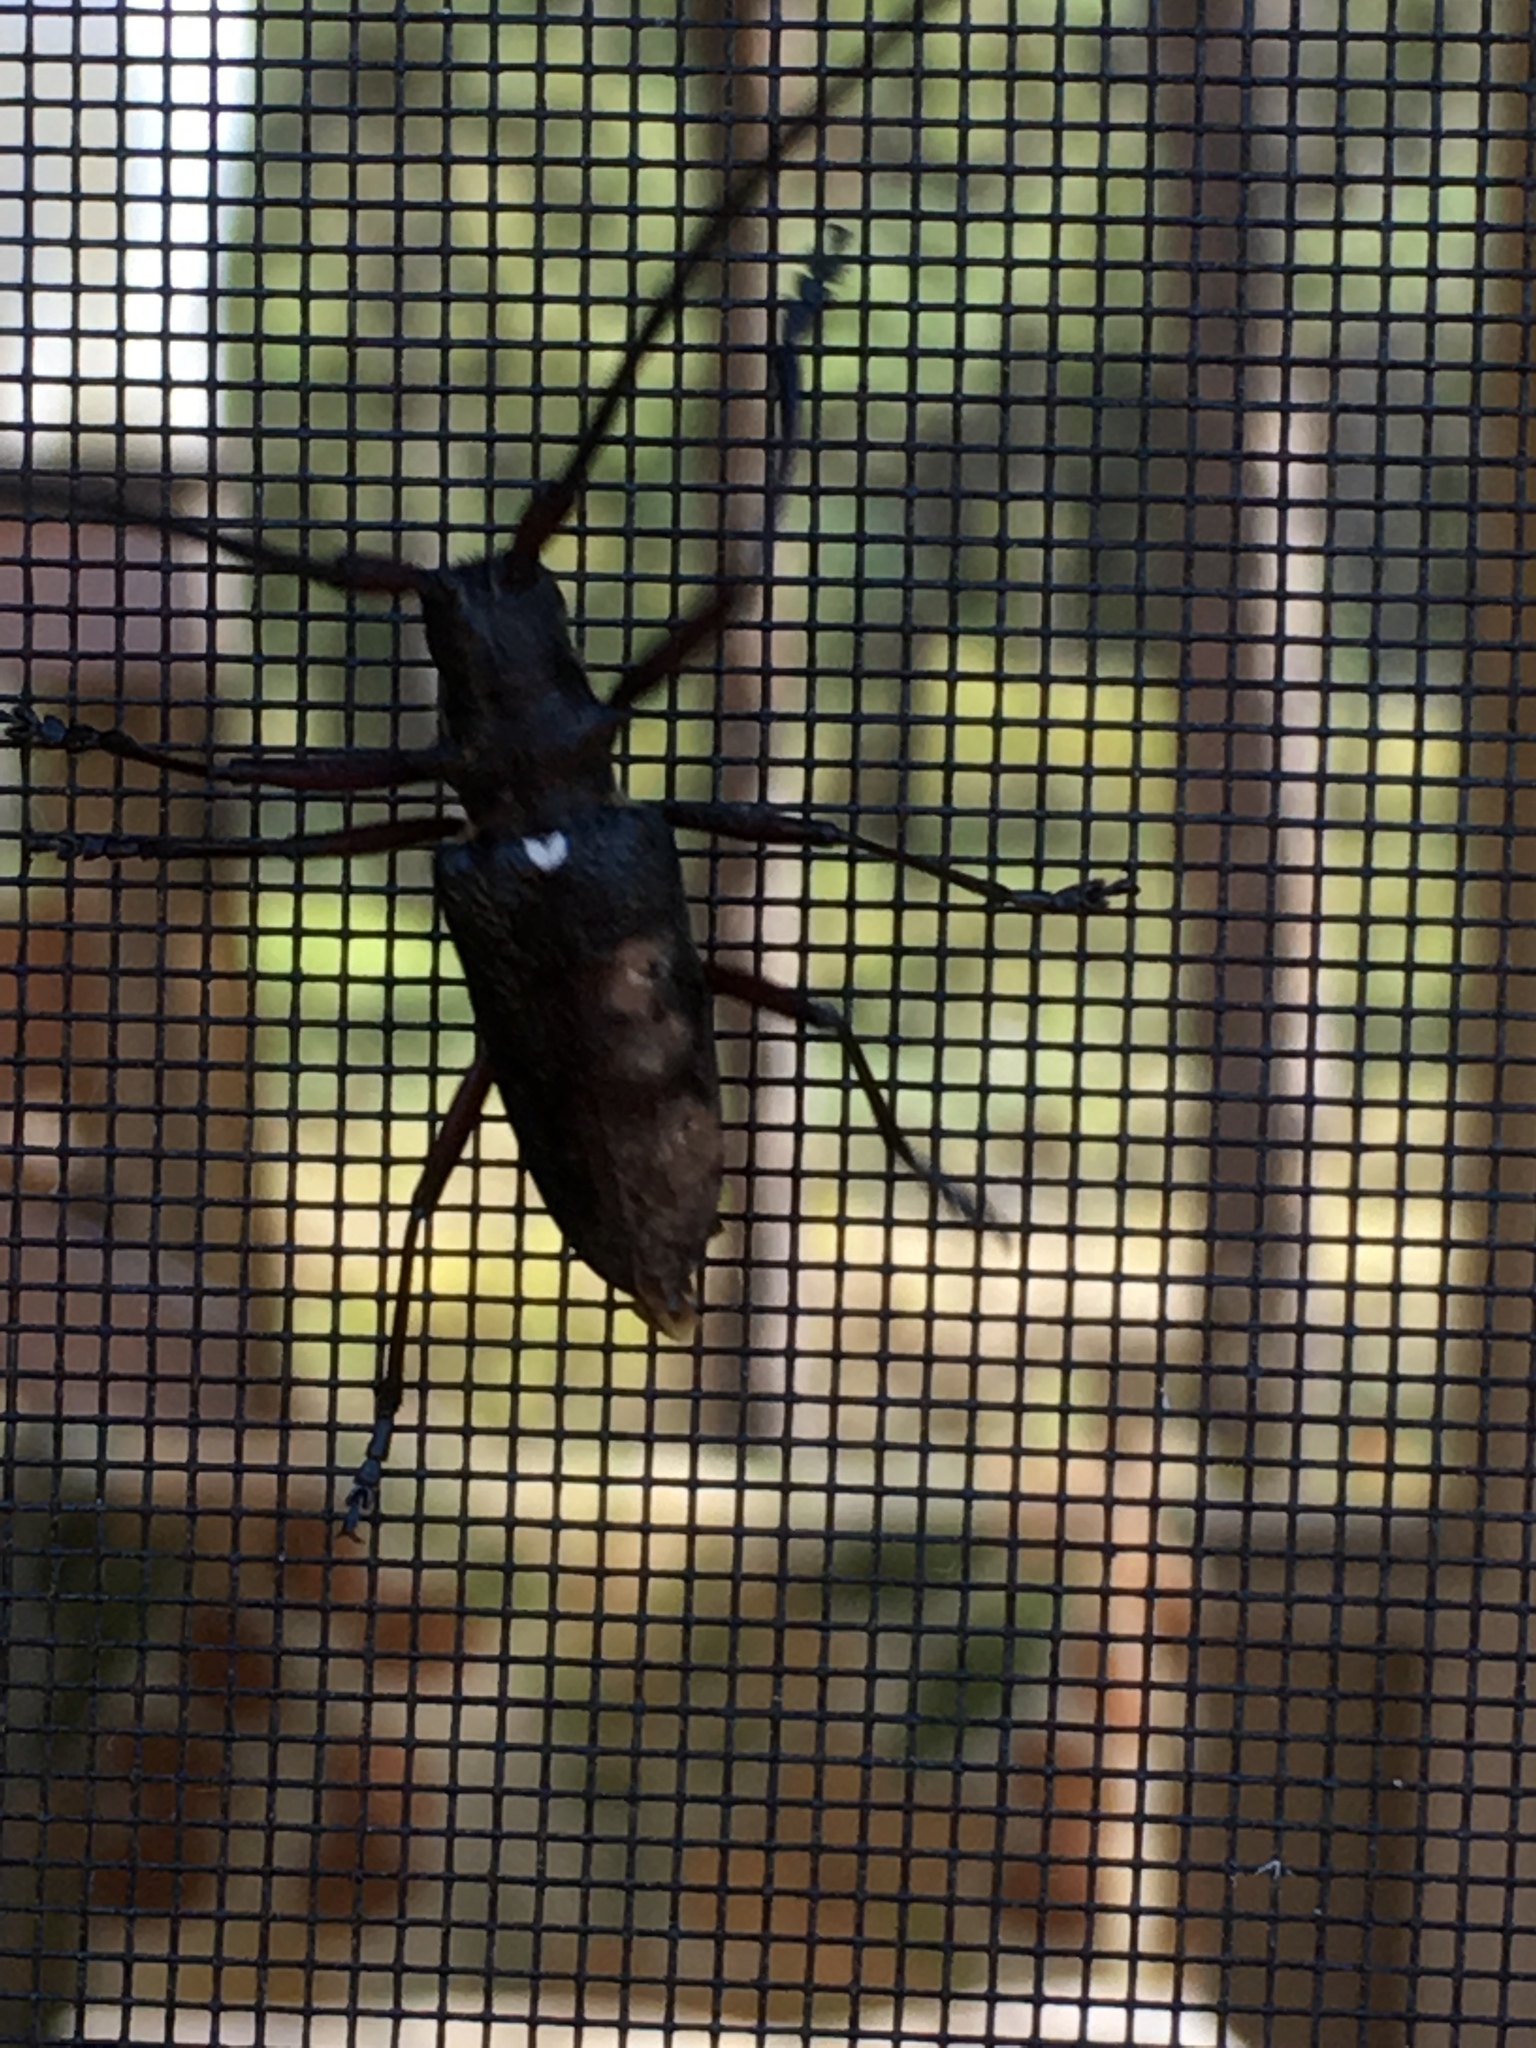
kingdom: Animalia
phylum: Arthropoda
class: Insecta
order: Coleoptera
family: Cerambycidae
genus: Monochamus
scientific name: Monochamus scutellatus
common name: White-spotted sawyer beetle
